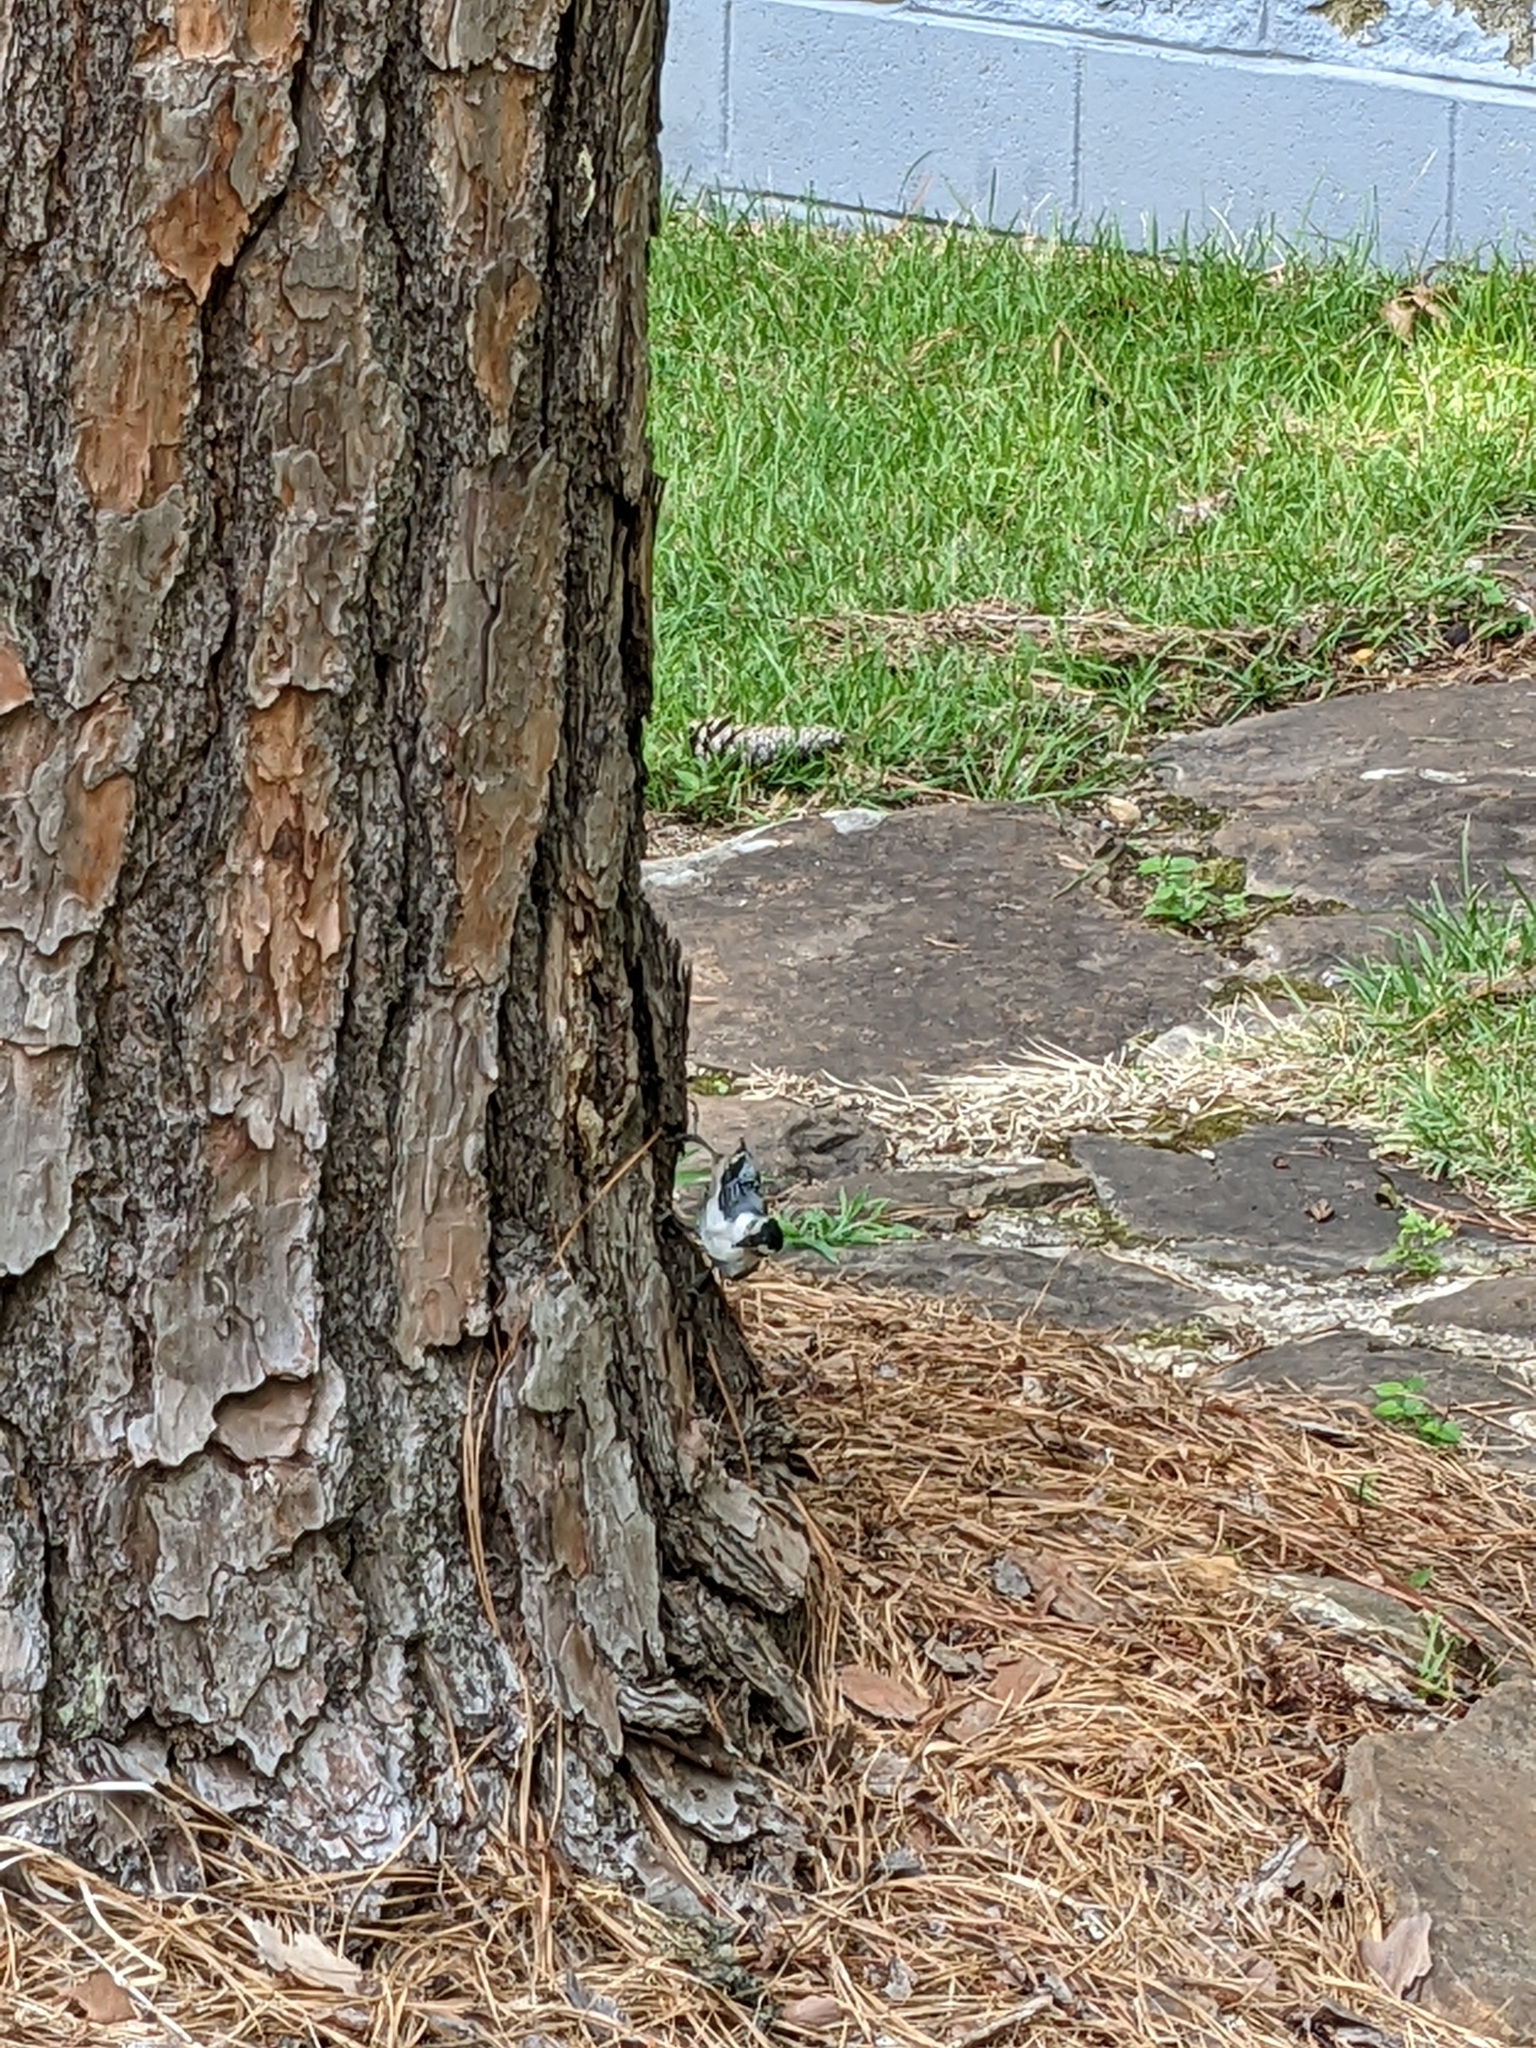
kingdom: Animalia
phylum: Chordata
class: Aves
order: Passeriformes
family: Sittidae
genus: Sitta
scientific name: Sitta carolinensis
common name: White-breasted nuthatch
